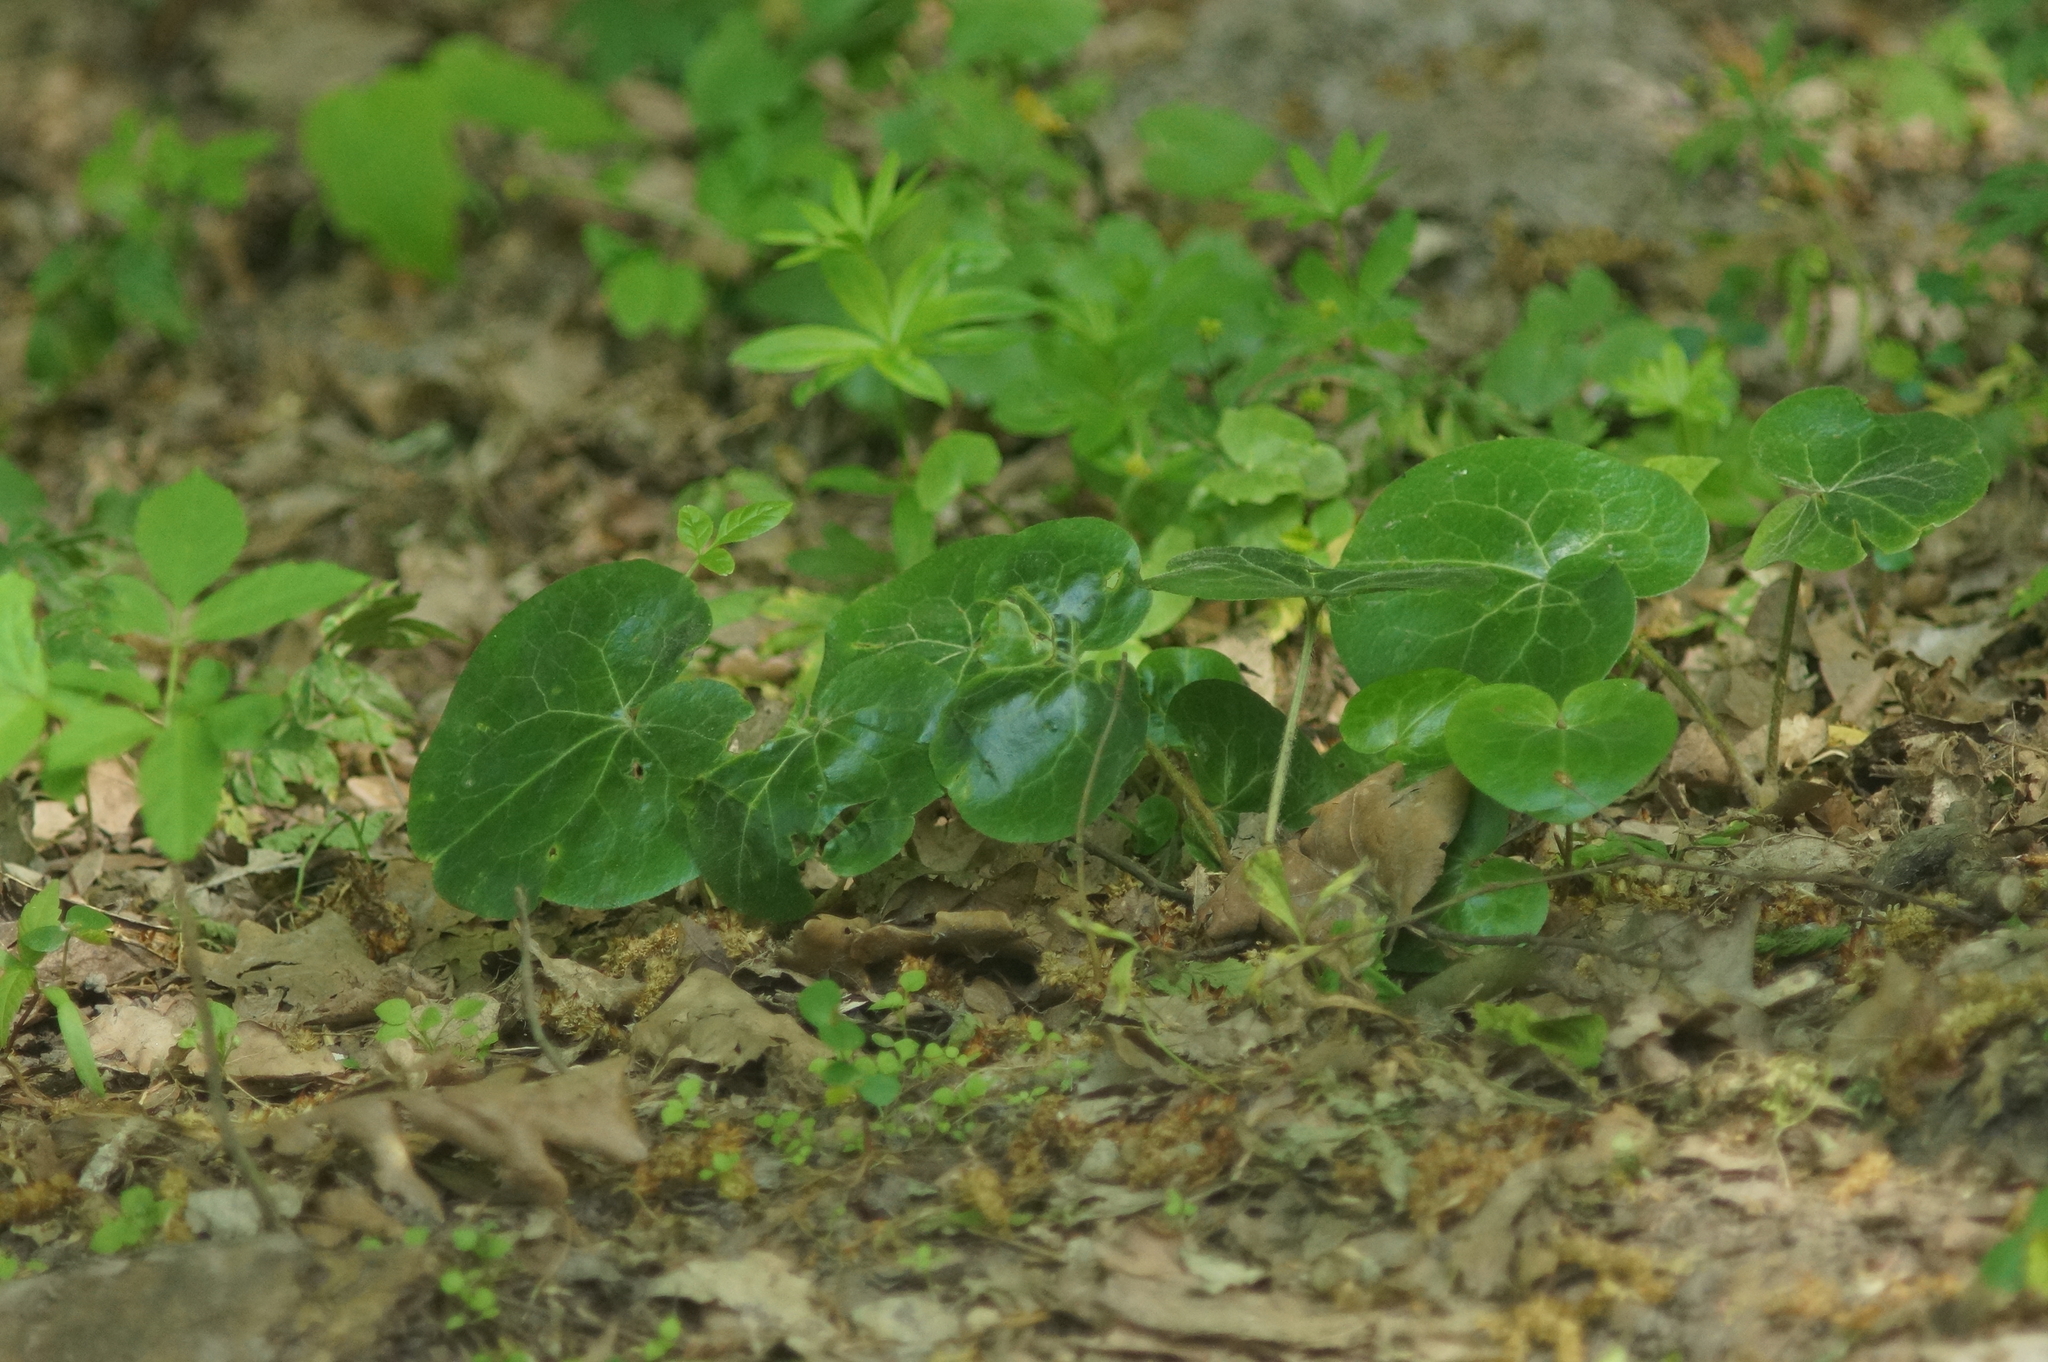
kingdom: Plantae
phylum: Tracheophyta
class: Magnoliopsida
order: Piperales
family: Aristolochiaceae
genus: Asarum
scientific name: Asarum europaeum
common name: Asarabacca
